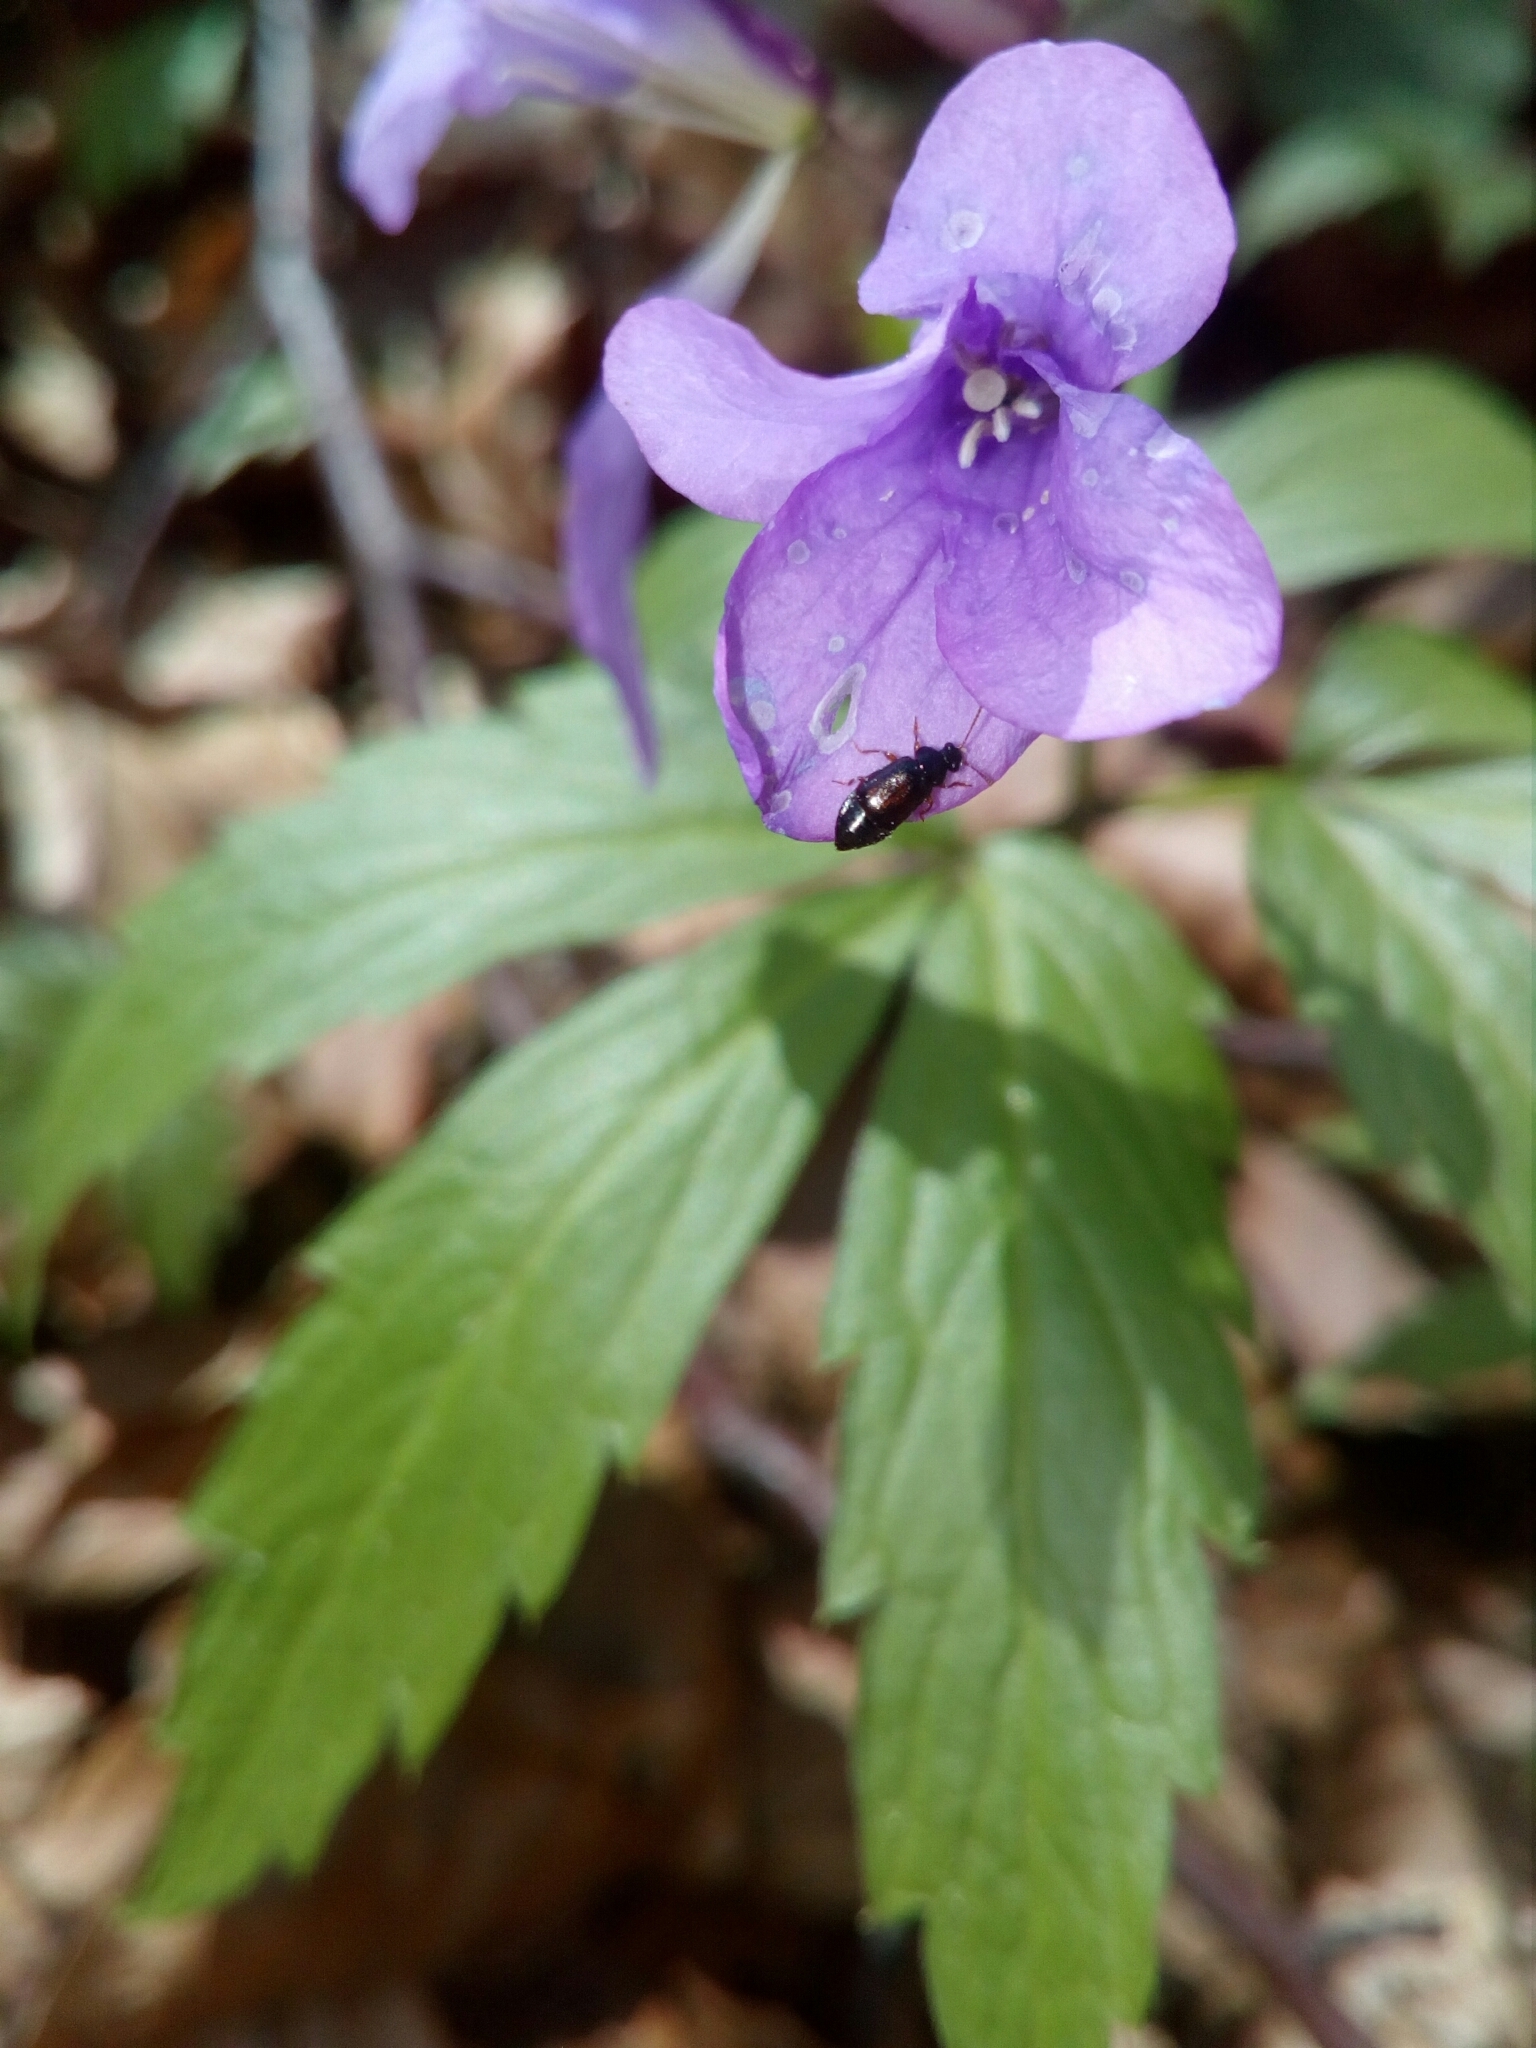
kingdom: Animalia
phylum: Arthropoda
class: Insecta
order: Coleoptera
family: Staphylinidae
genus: Eusphalerum
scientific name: Eusphalerum minutum
